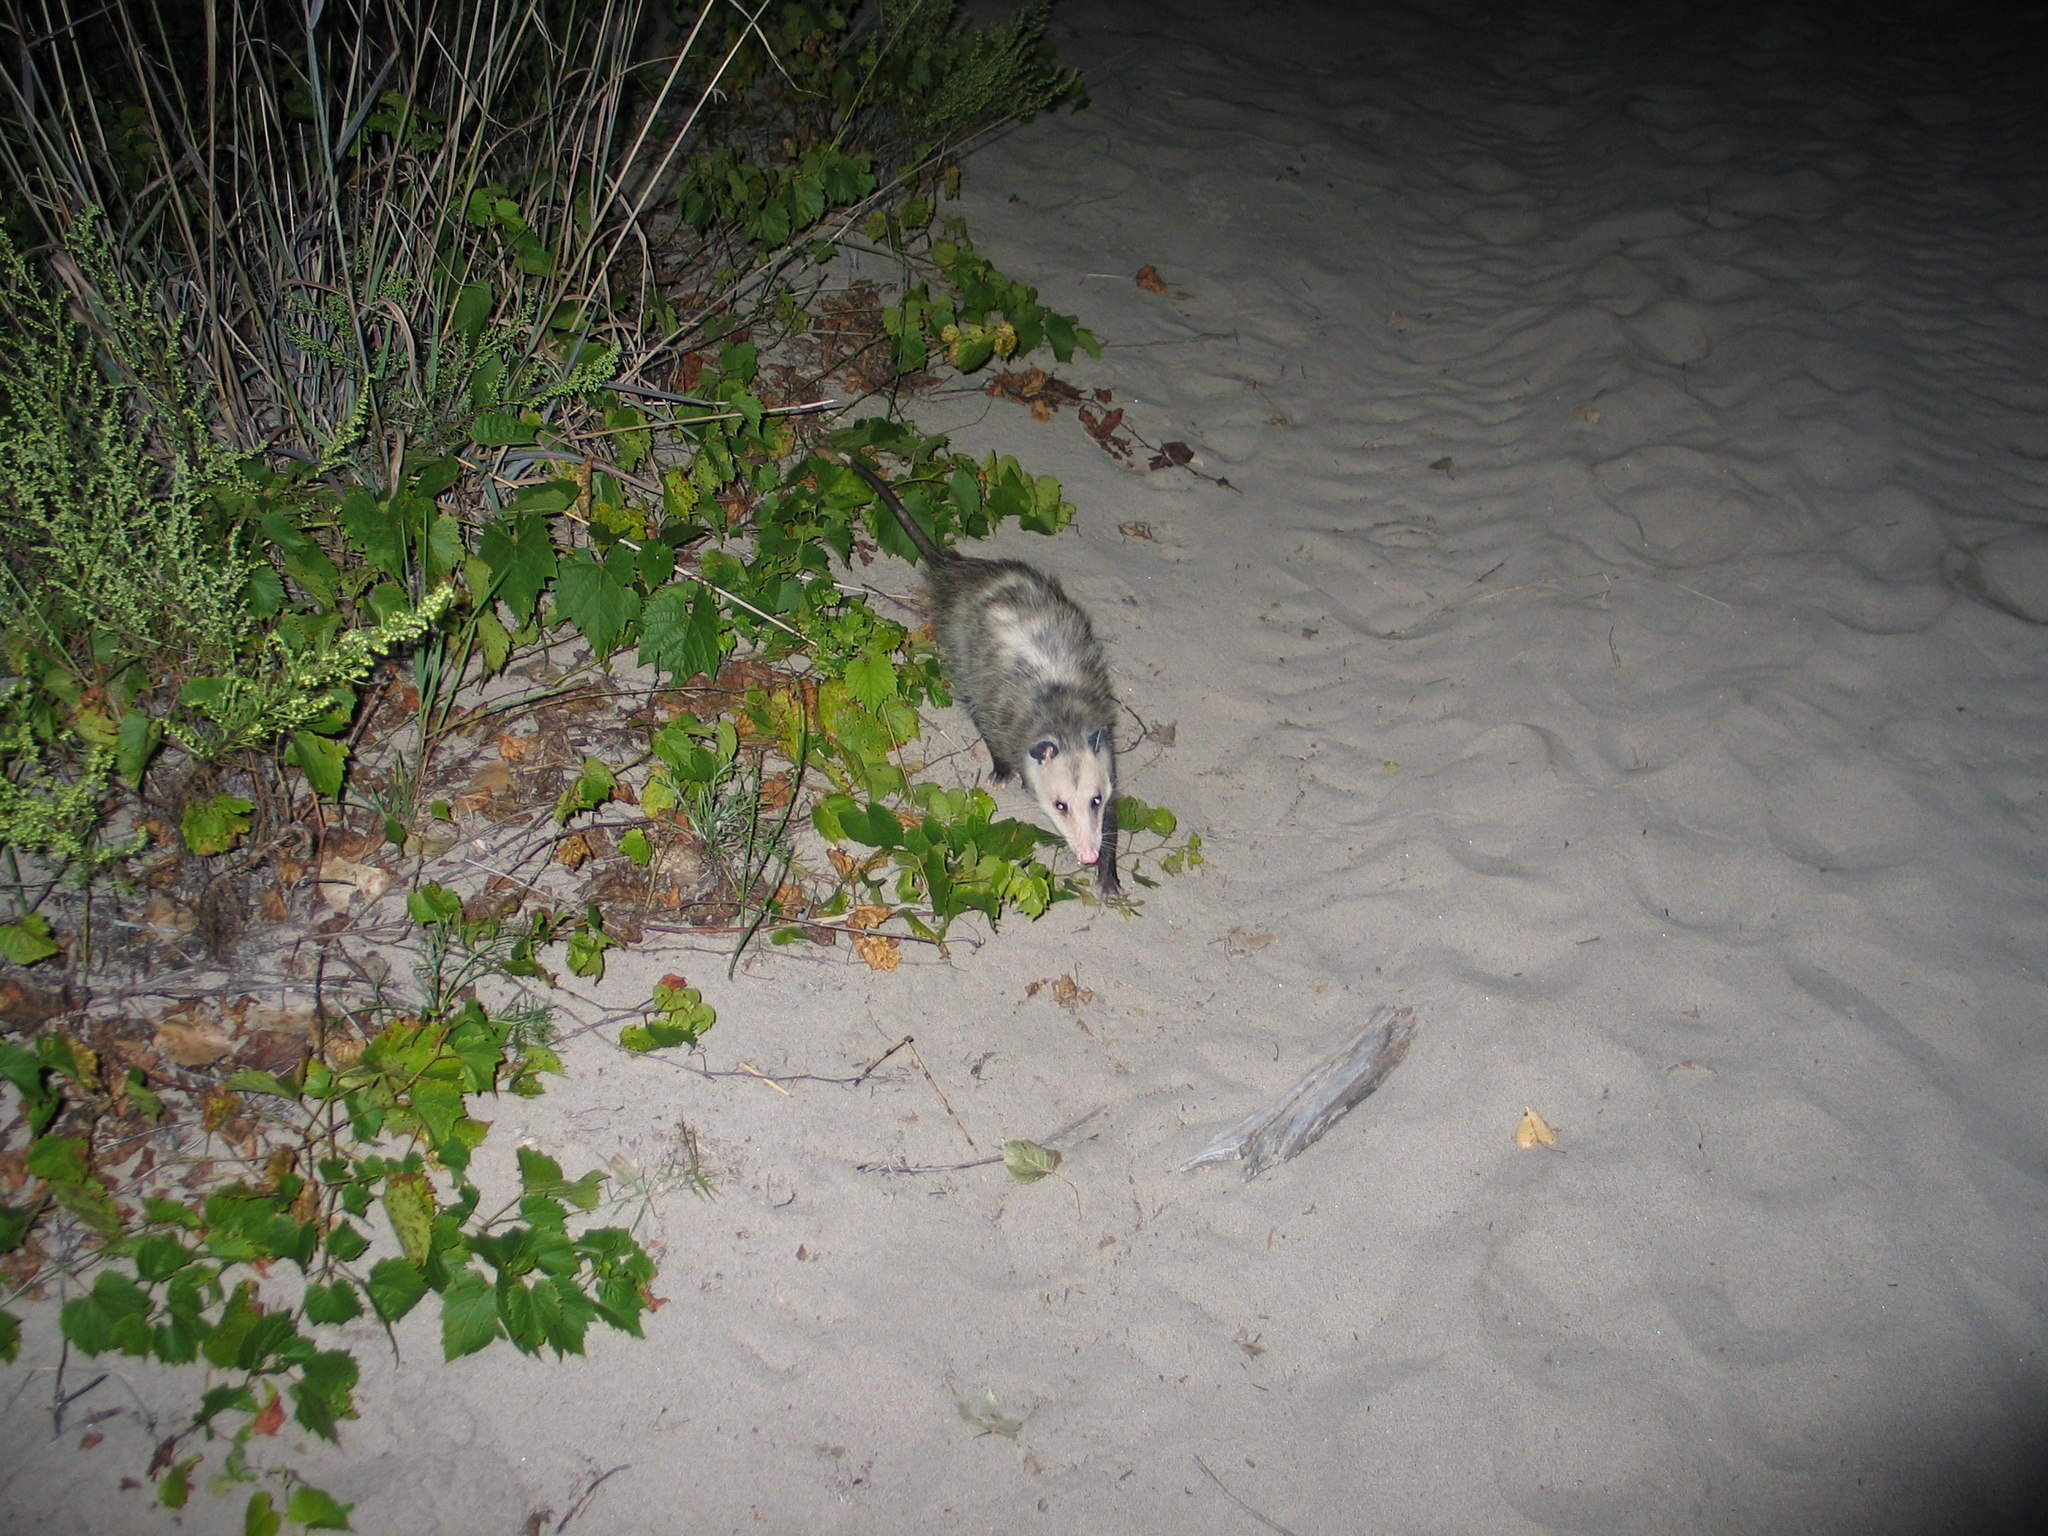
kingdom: Animalia
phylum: Chordata
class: Mammalia
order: Didelphimorphia
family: Didelphidae
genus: Didelphis
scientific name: Didelphis virginiana
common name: Virginia opossum
